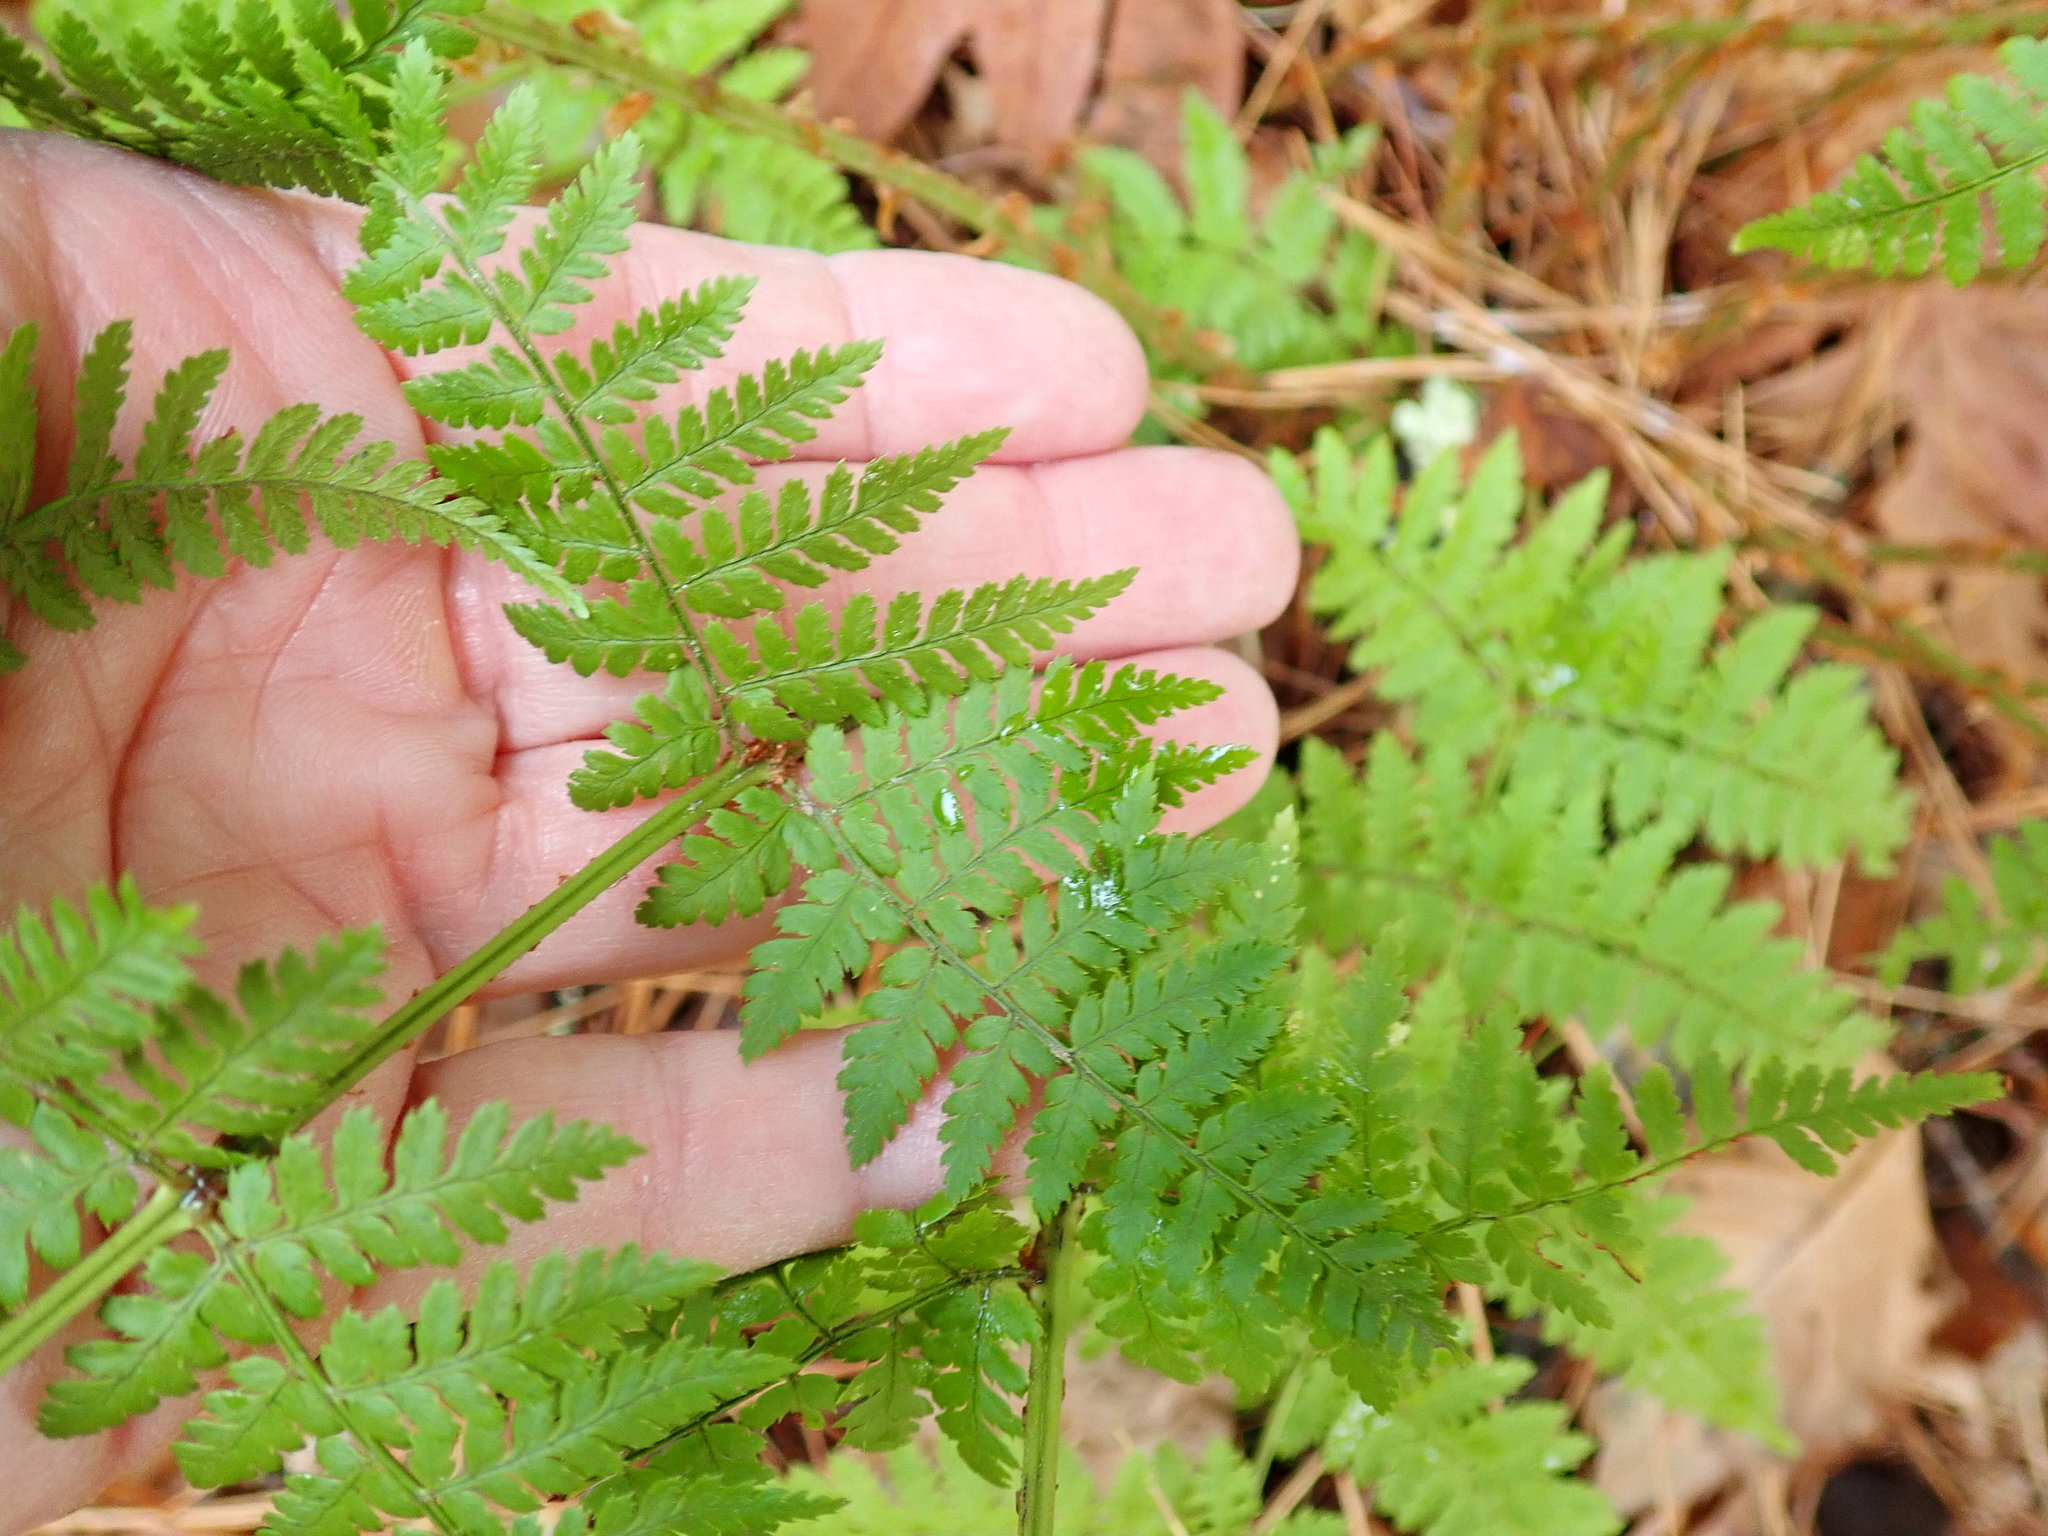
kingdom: Plantae
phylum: Tracheophyta
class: Polypodiopsida
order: Polypodiales
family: Dryopteridaceae
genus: Dryopteris
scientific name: Dryopteris intermedia
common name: Evergreen wood fern
